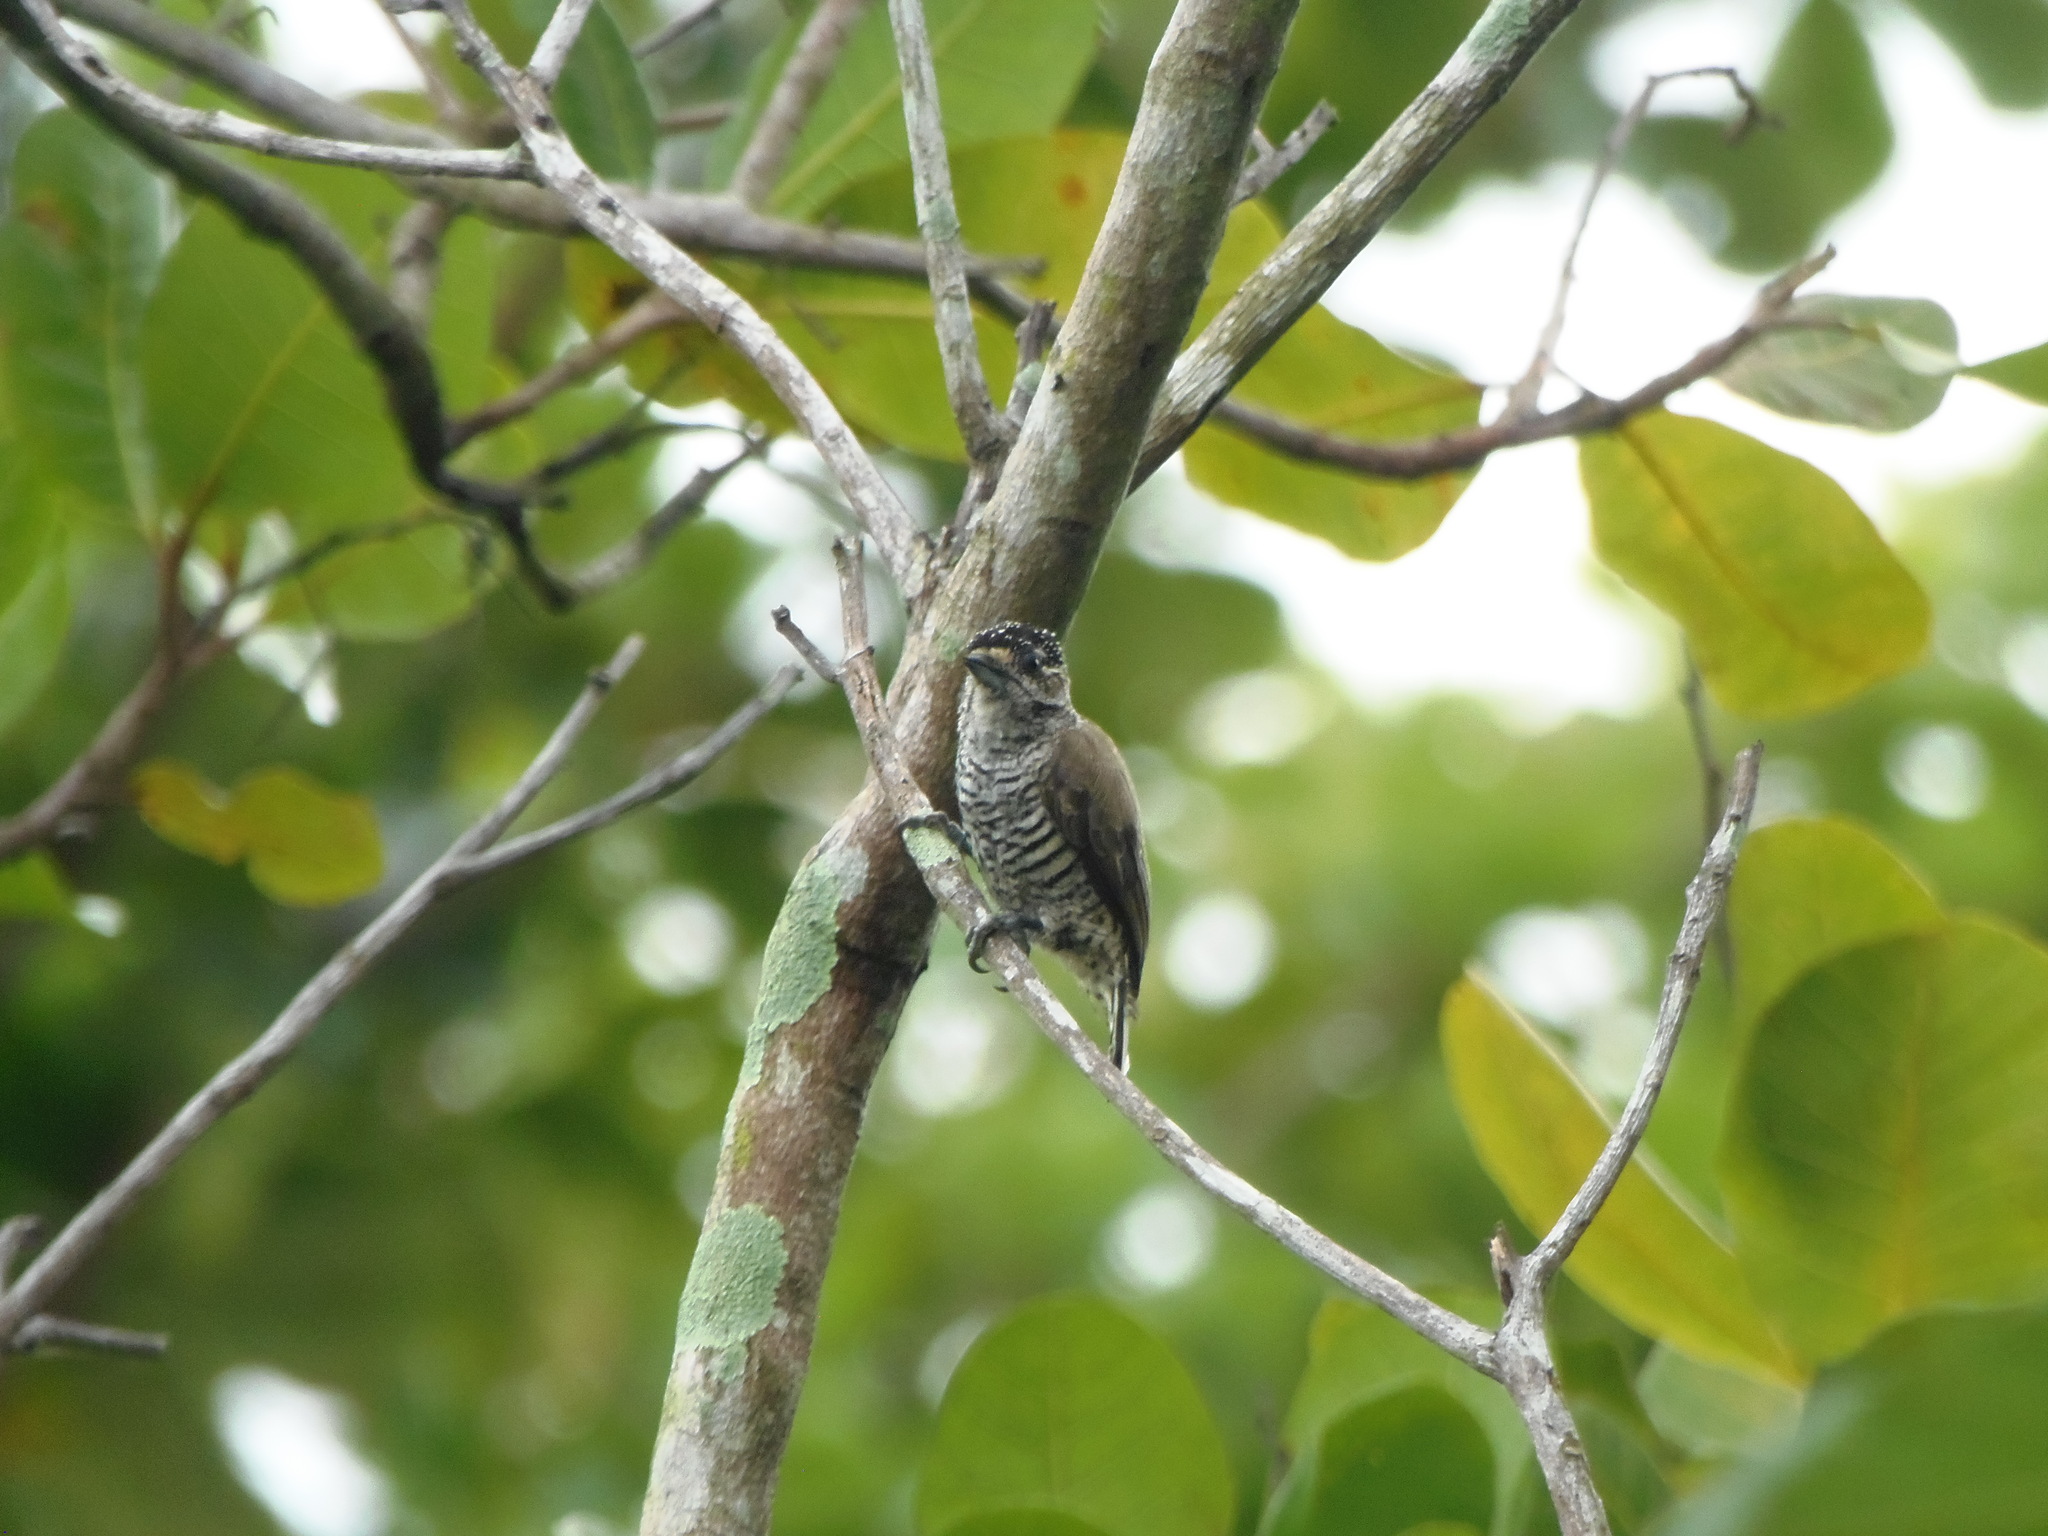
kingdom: Animalia
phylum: Chordata
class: Aves
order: Piciformes
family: Picidae
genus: Picumnus
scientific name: Picumnus cirratus
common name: White-barred piculet
